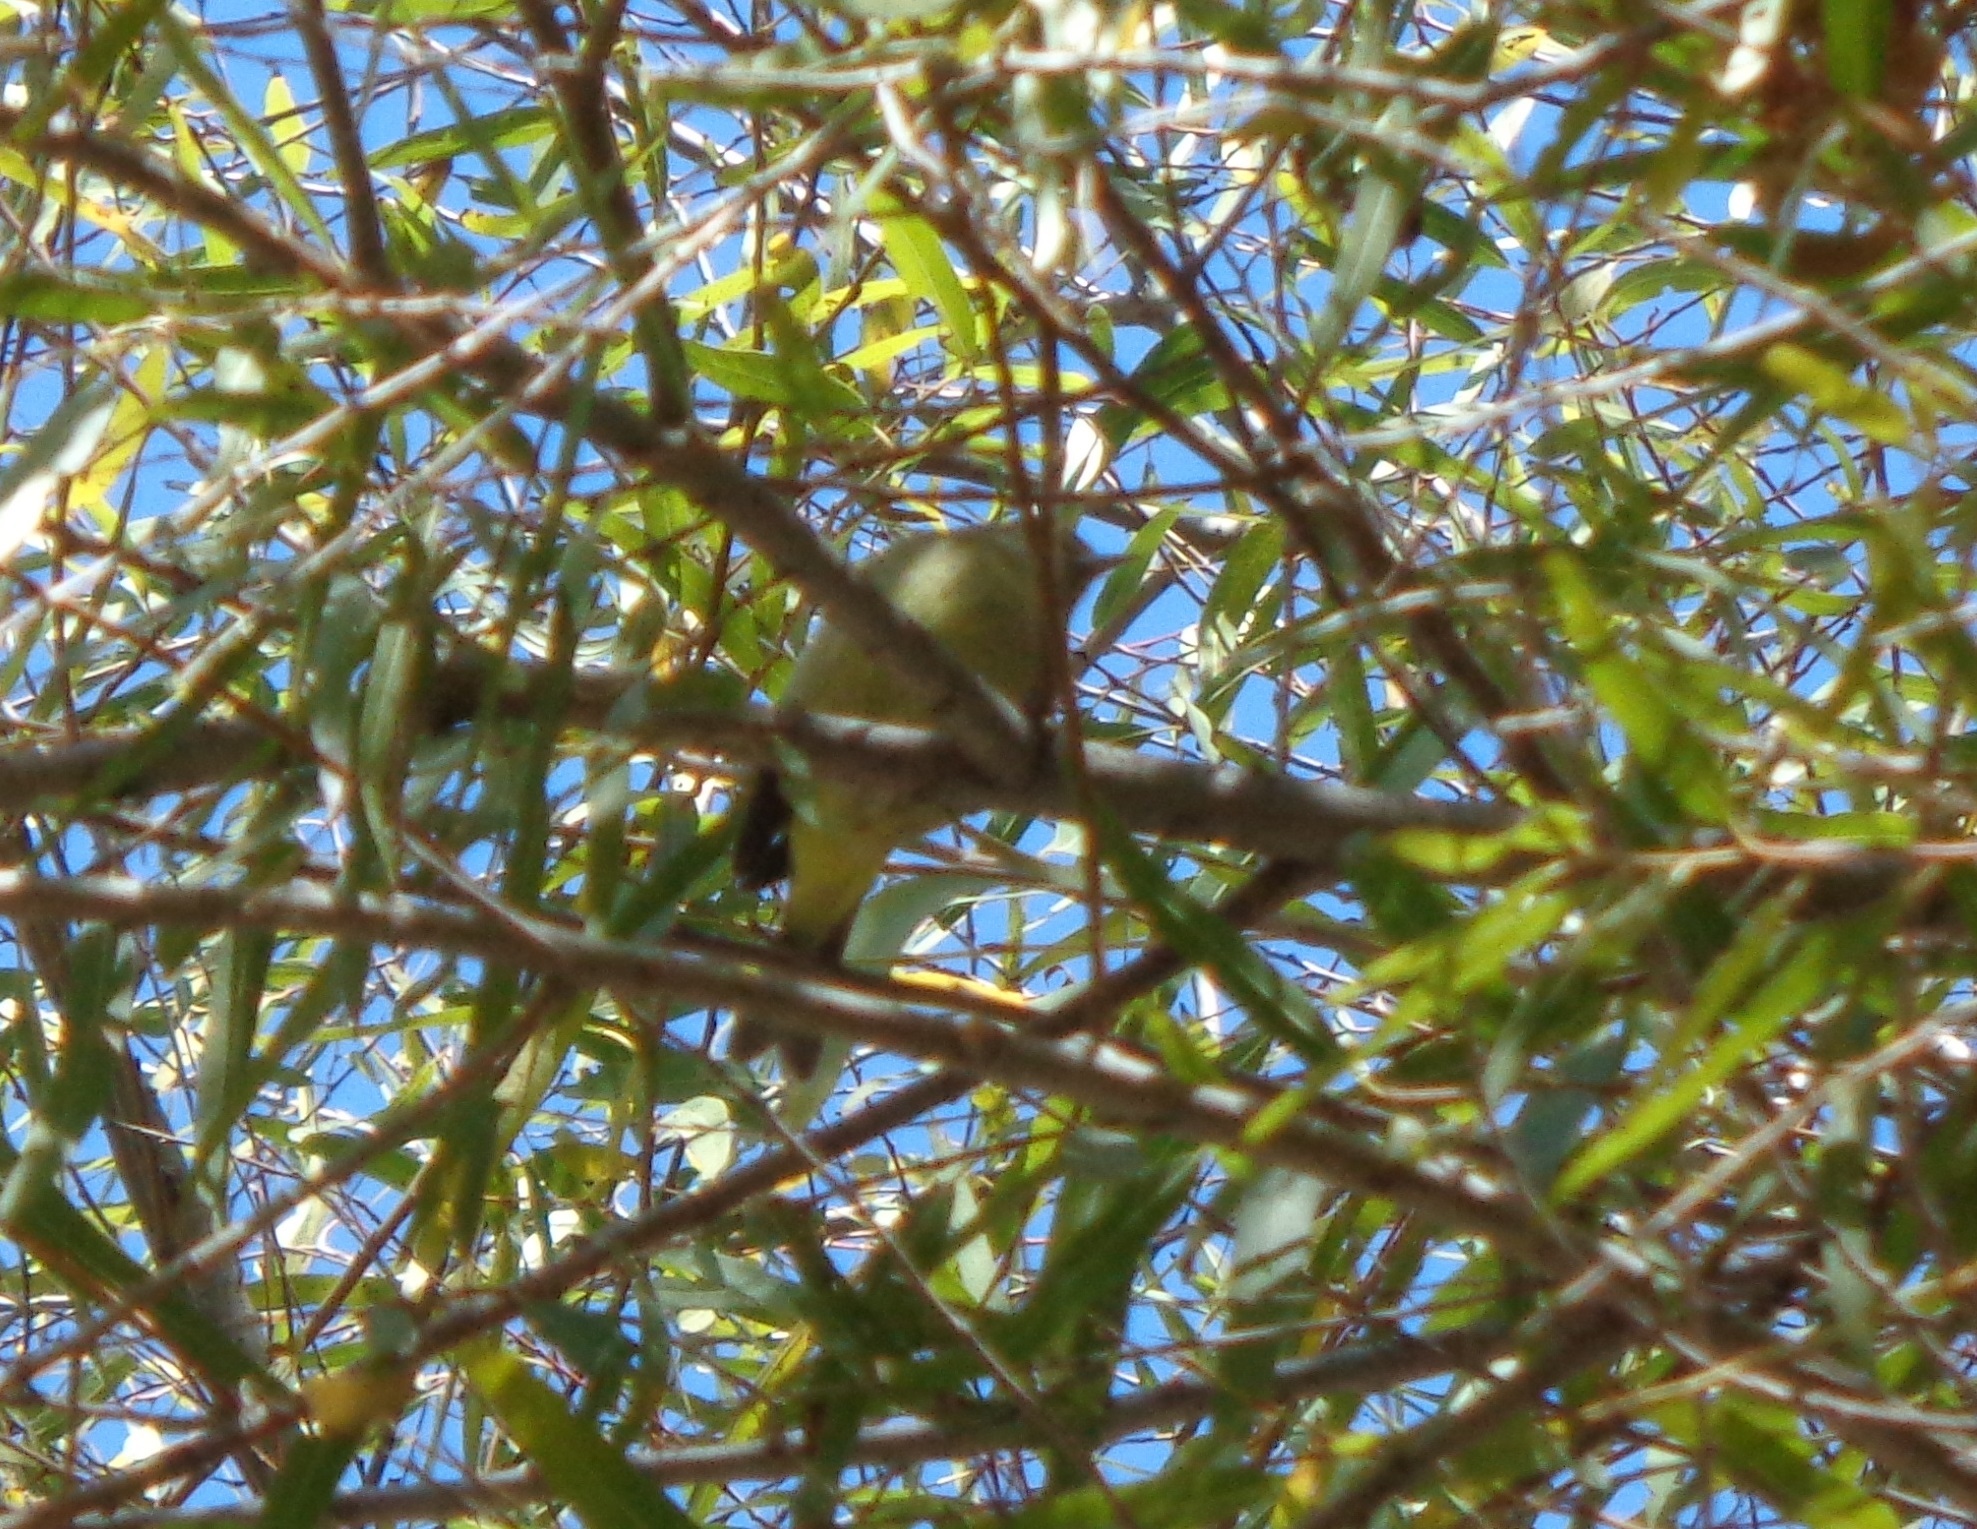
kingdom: Animalia
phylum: Chordata
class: Aves
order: Passeriformes
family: Parulidae
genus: Leiothlypis
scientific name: Leiothlypis celata
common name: Orange-crowned warbler
